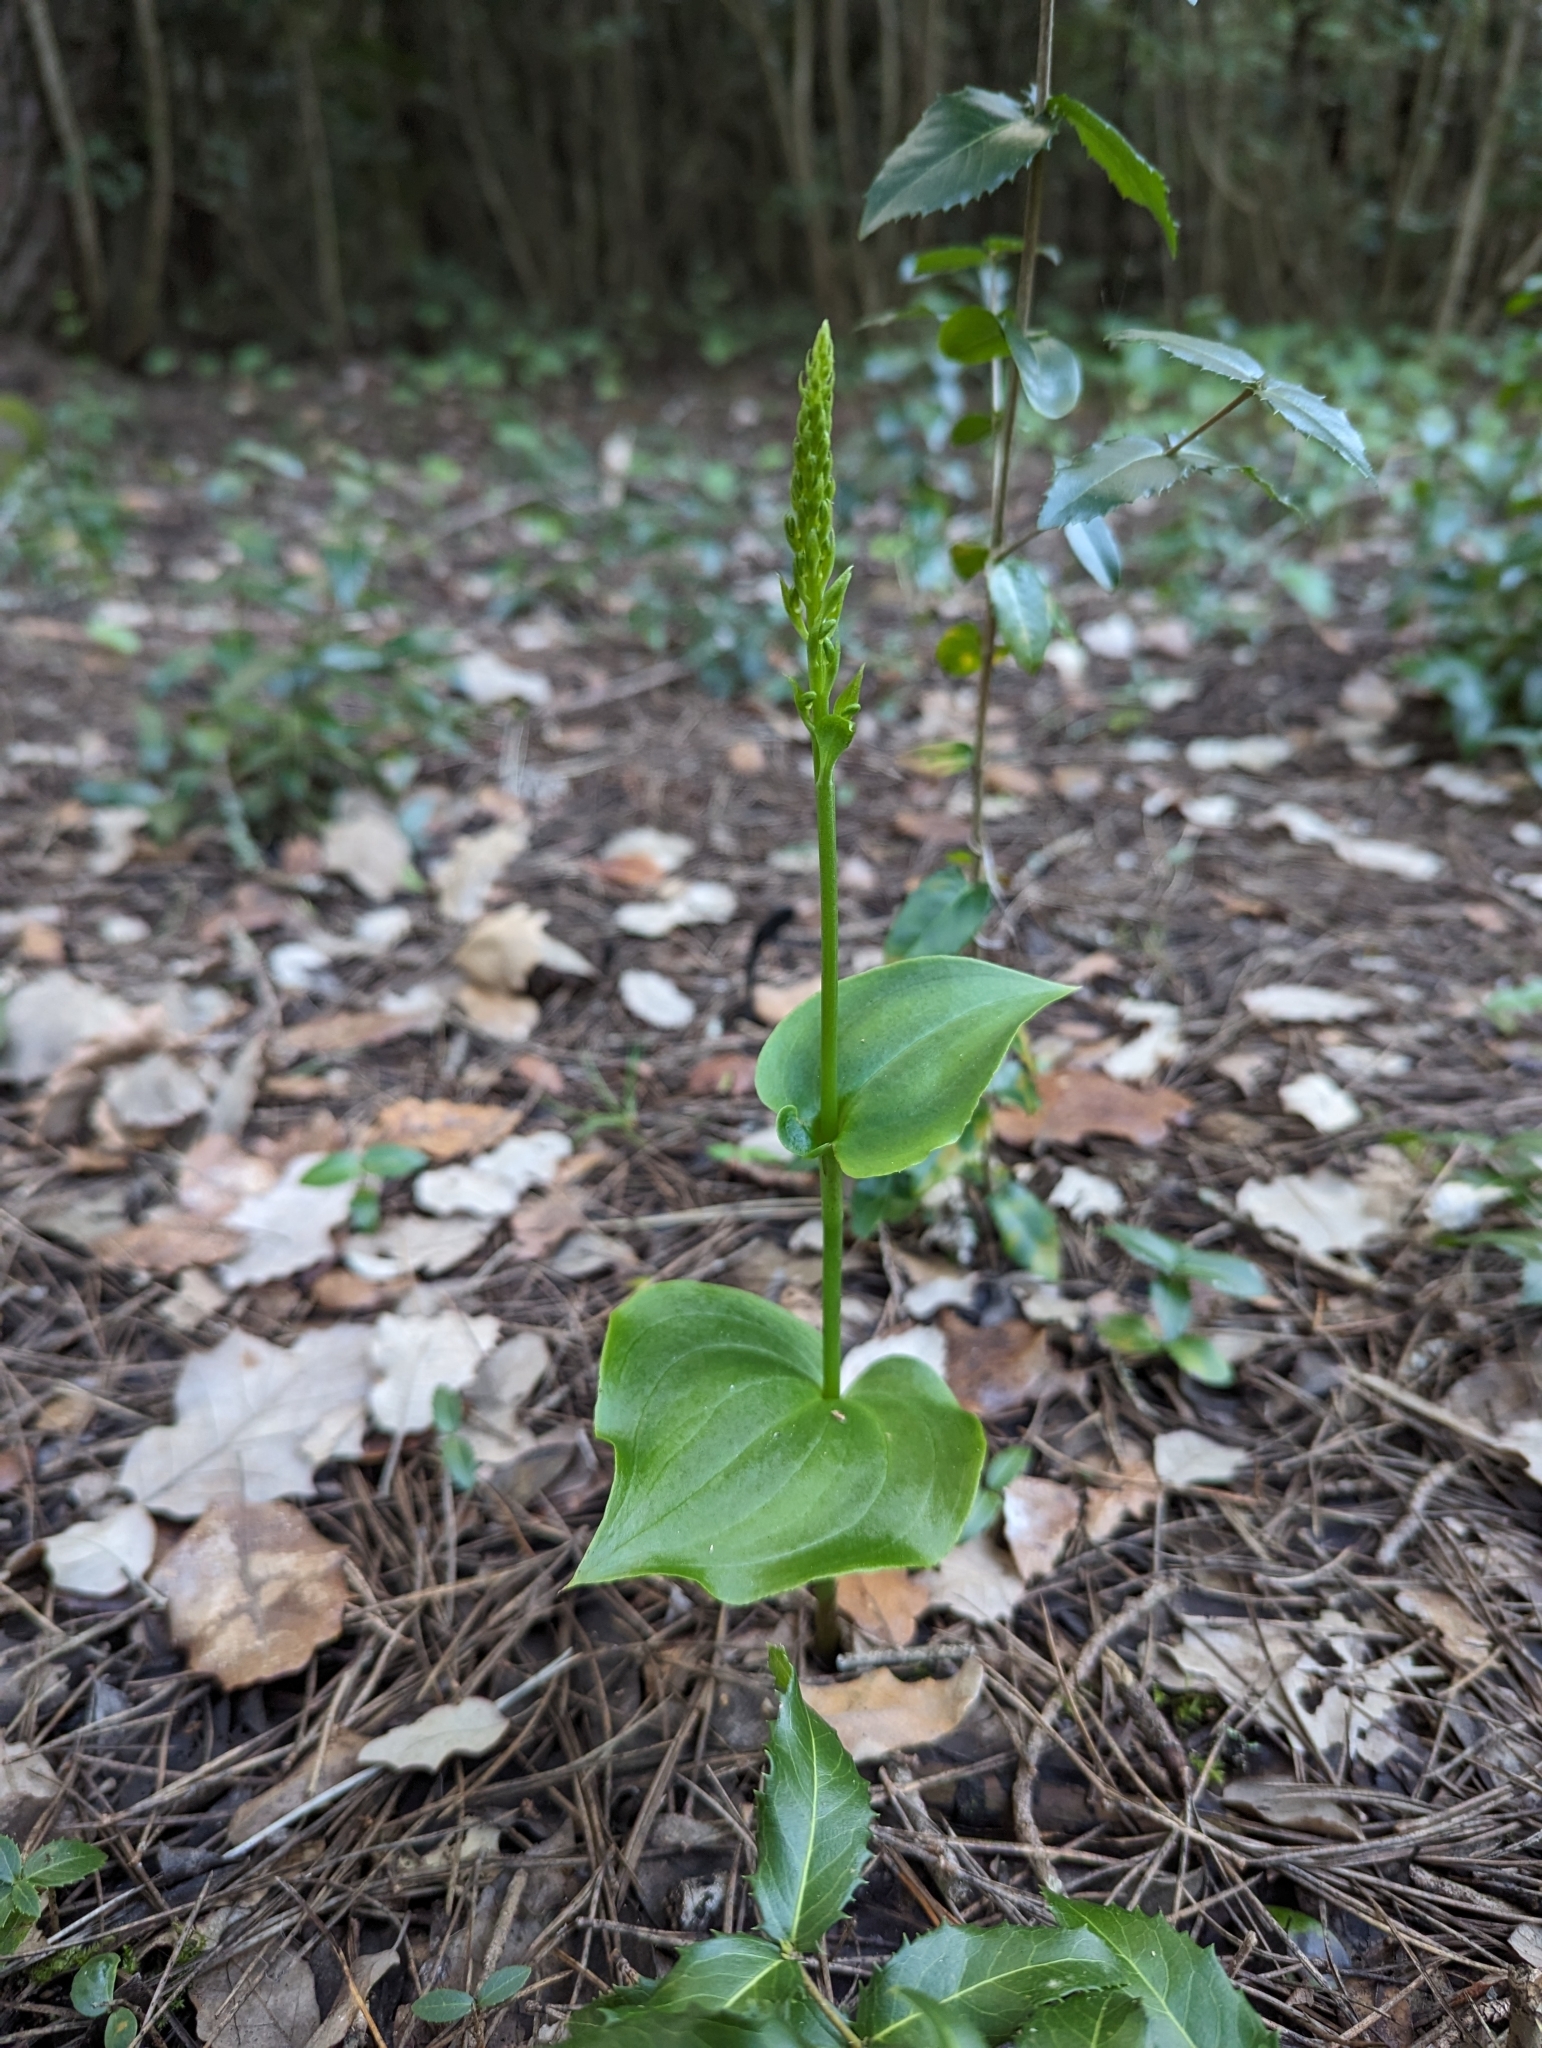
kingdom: Plantae
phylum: Tracheophyta
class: Liliopsida
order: Asparagales
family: Orchidaceae
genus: Gennaria
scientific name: Gennaria diphylla
